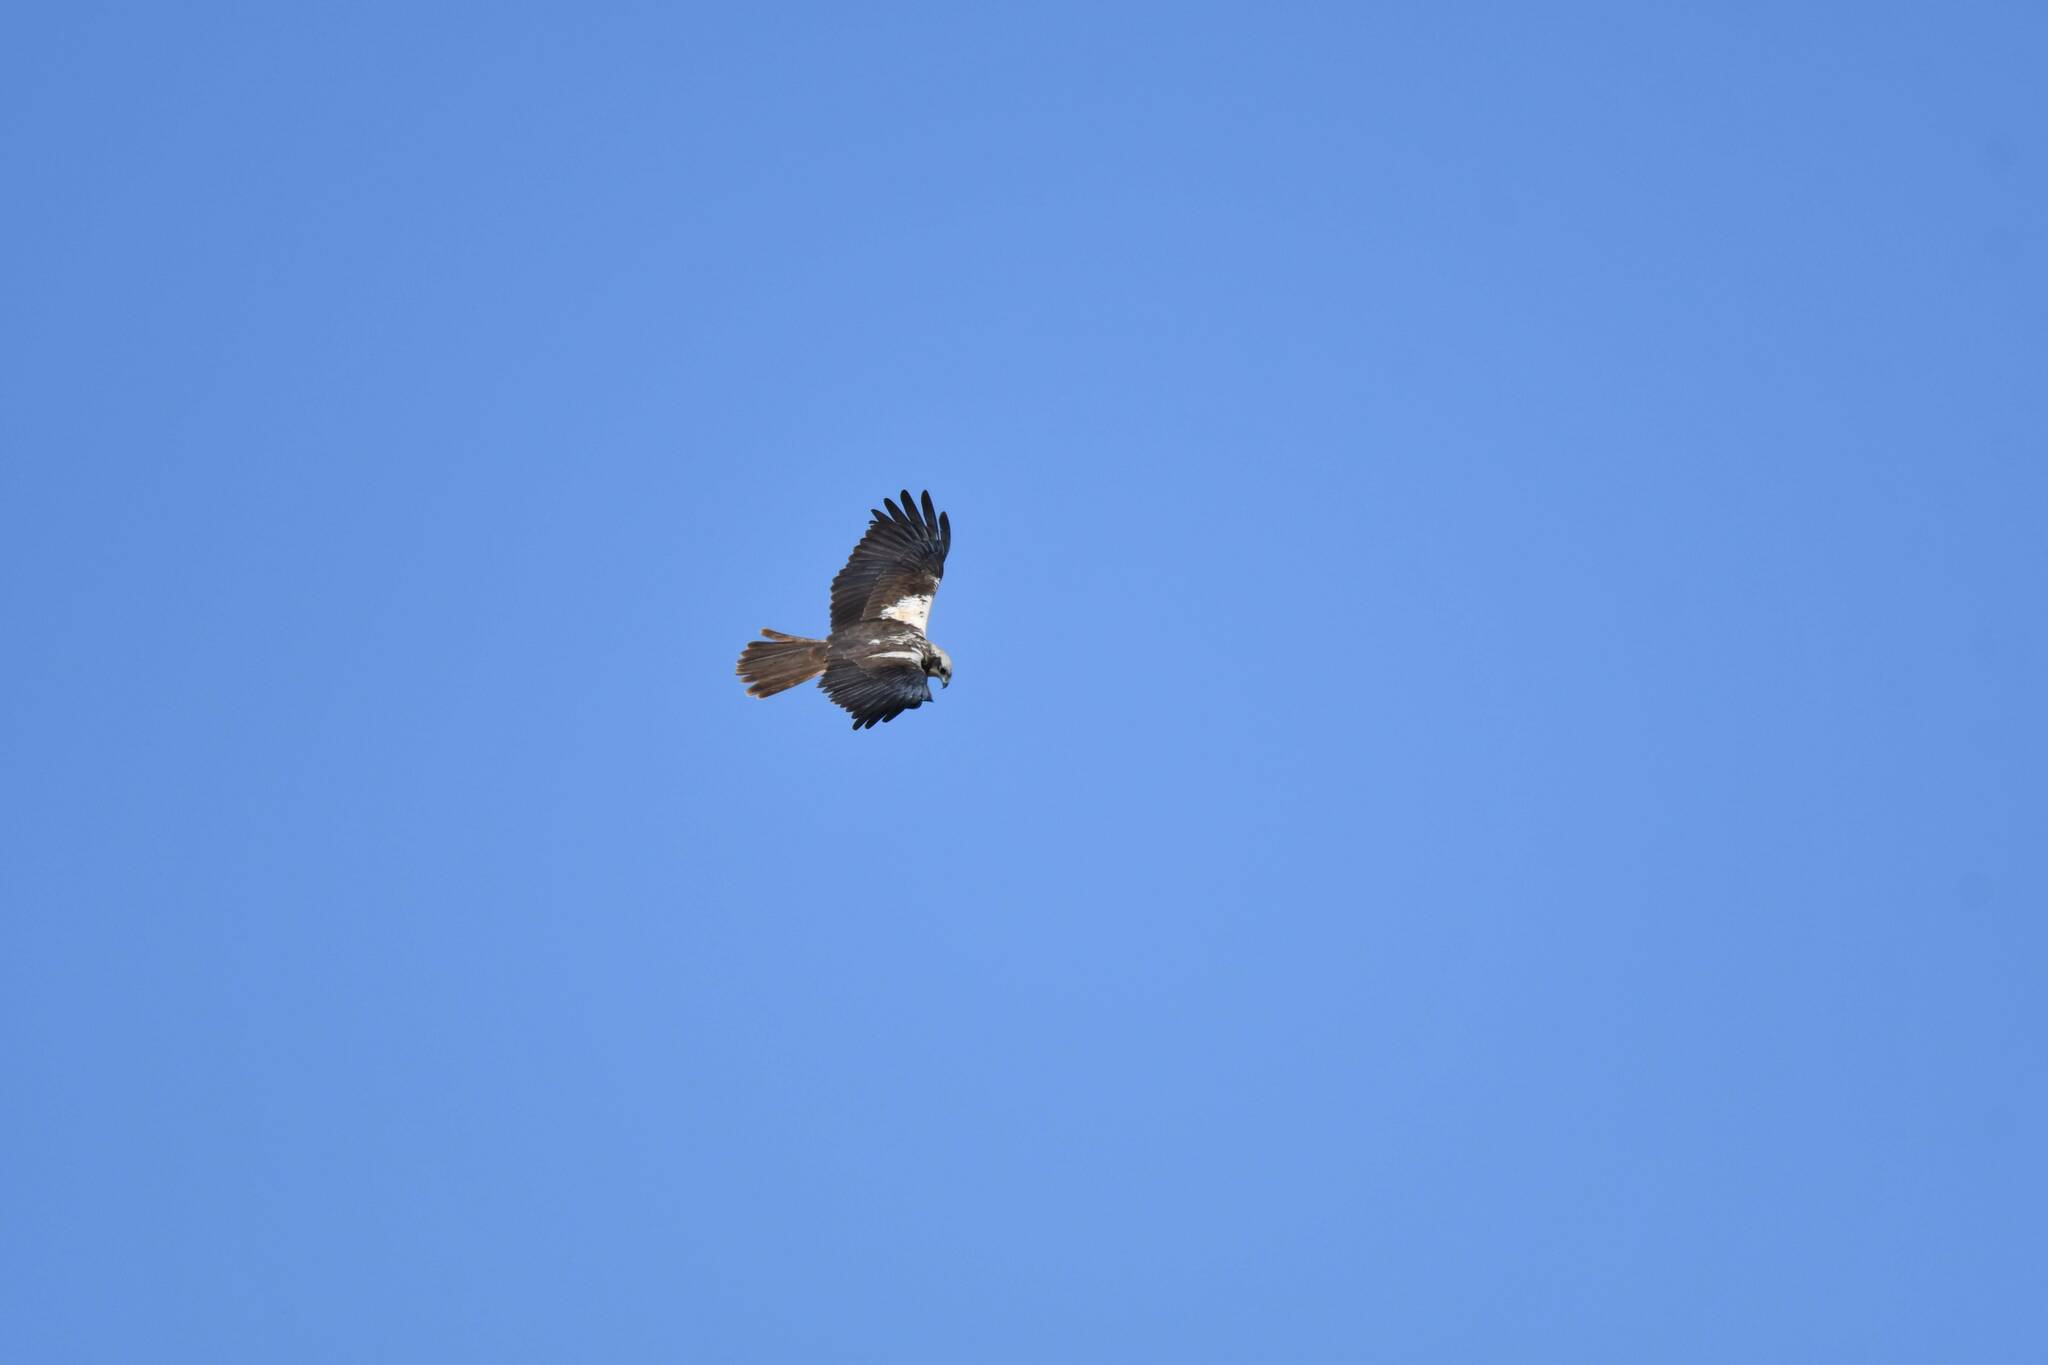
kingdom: Animalia
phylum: Chordata
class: Aves
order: Accipitriformes
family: Accipitridae
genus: Circus
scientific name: Circus aeruginosus
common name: Western marsh harrier
